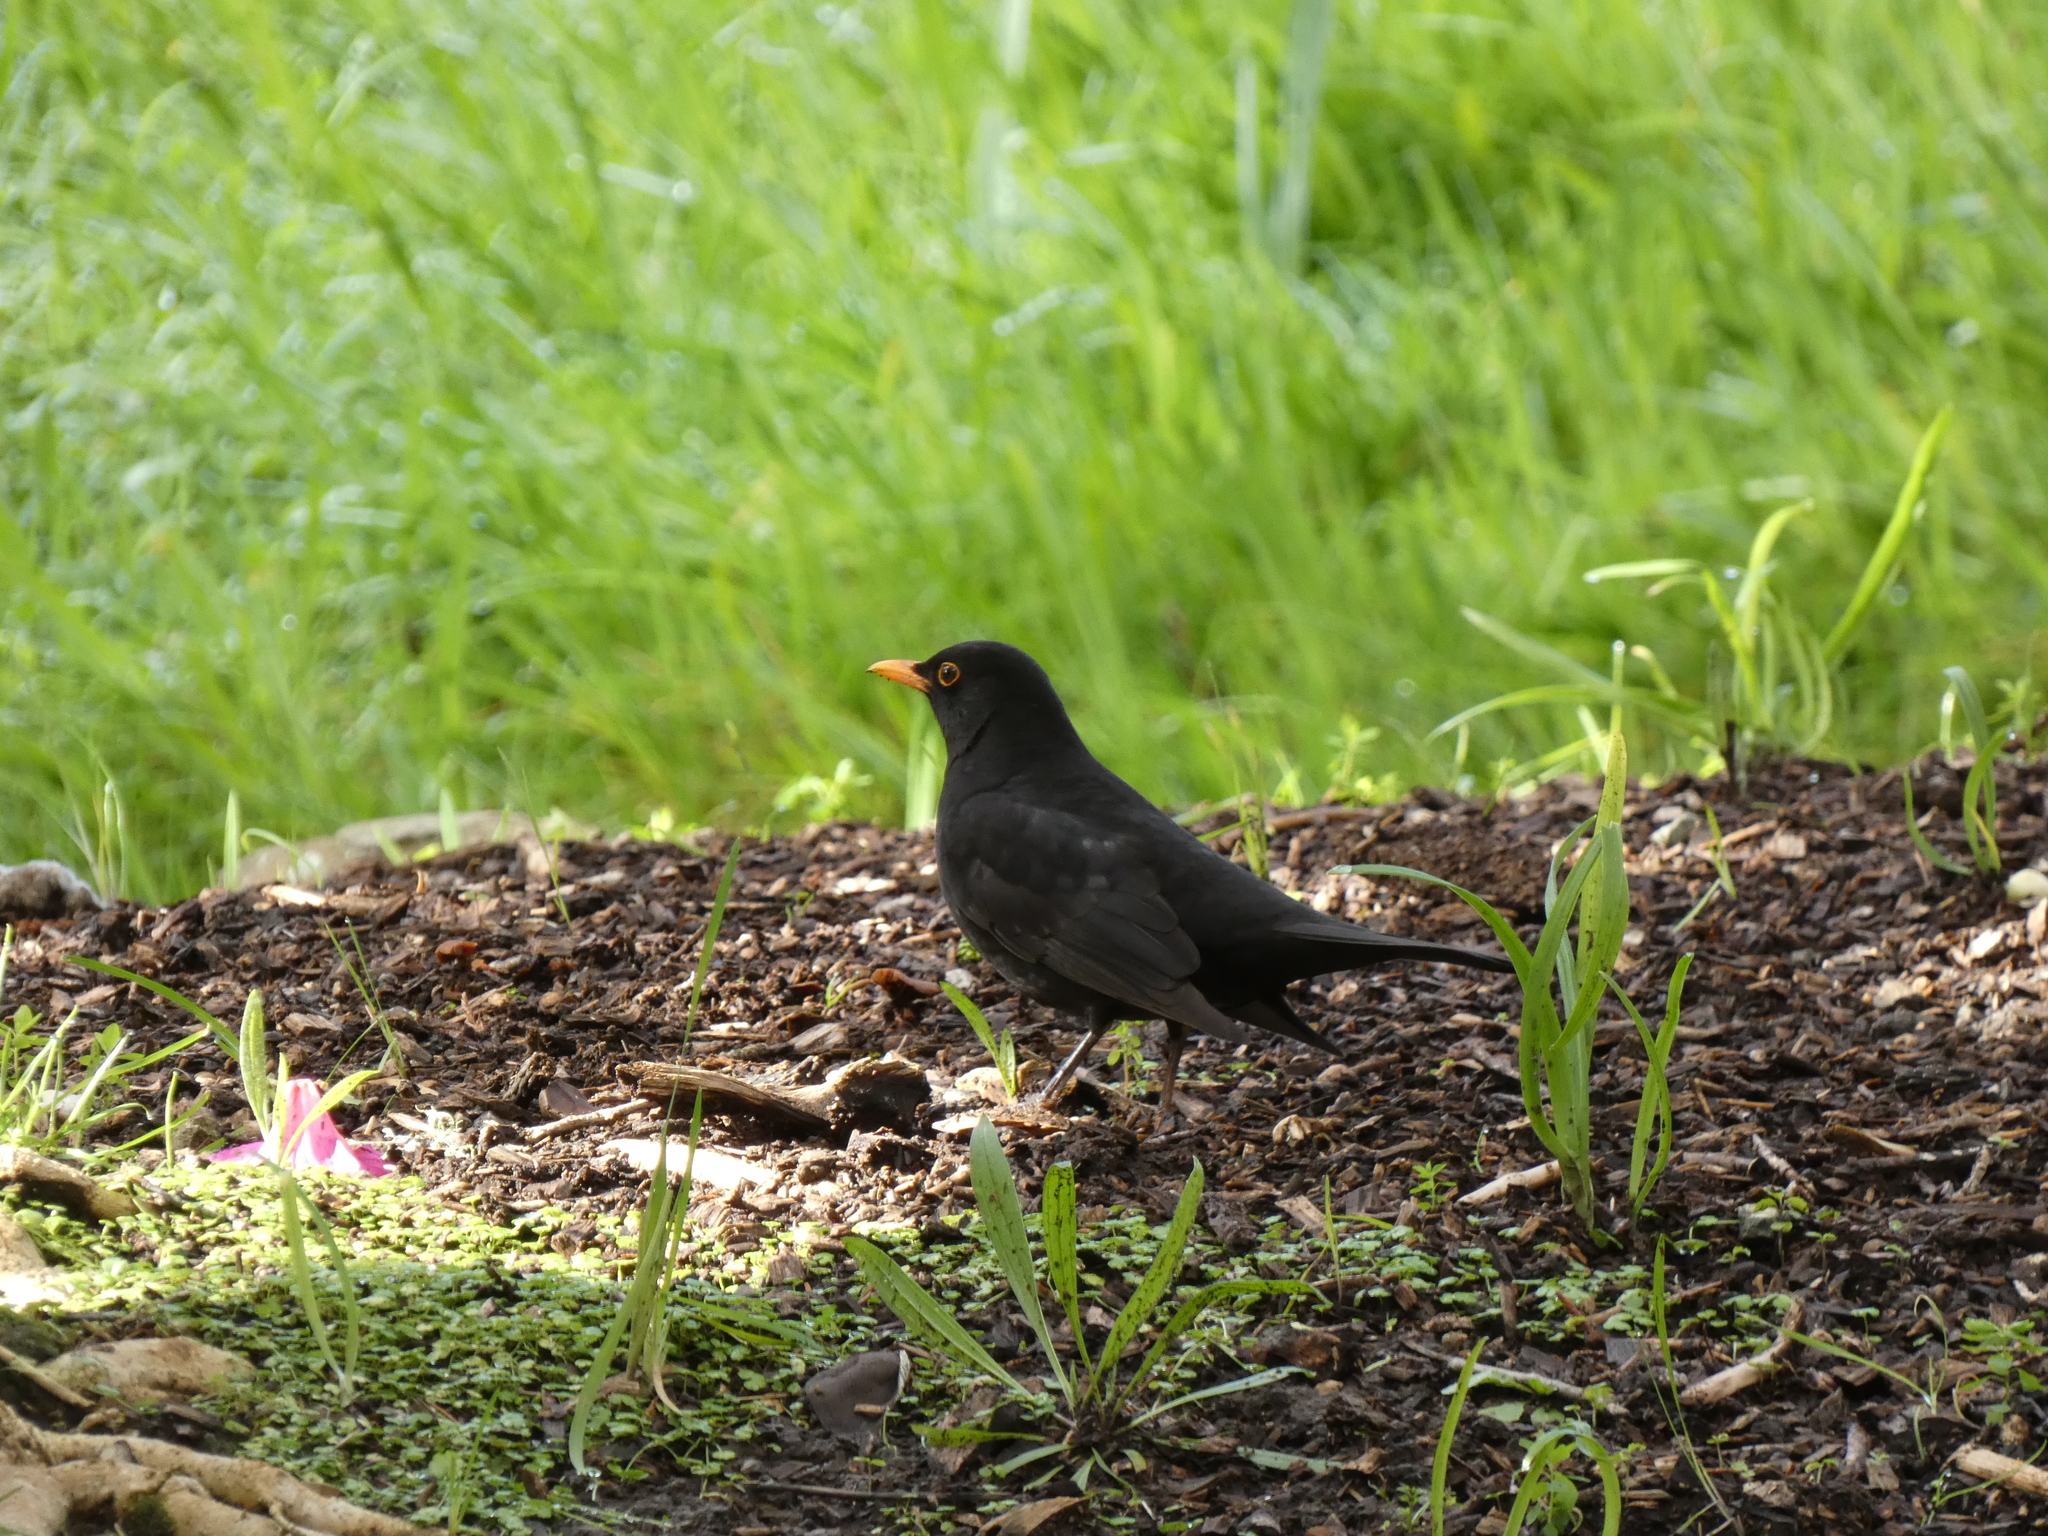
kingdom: Animalia
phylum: Chordata
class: Aves
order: Passeriformes
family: Turdidae
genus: Turdus
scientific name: Turdus merula
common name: Common blackbird
